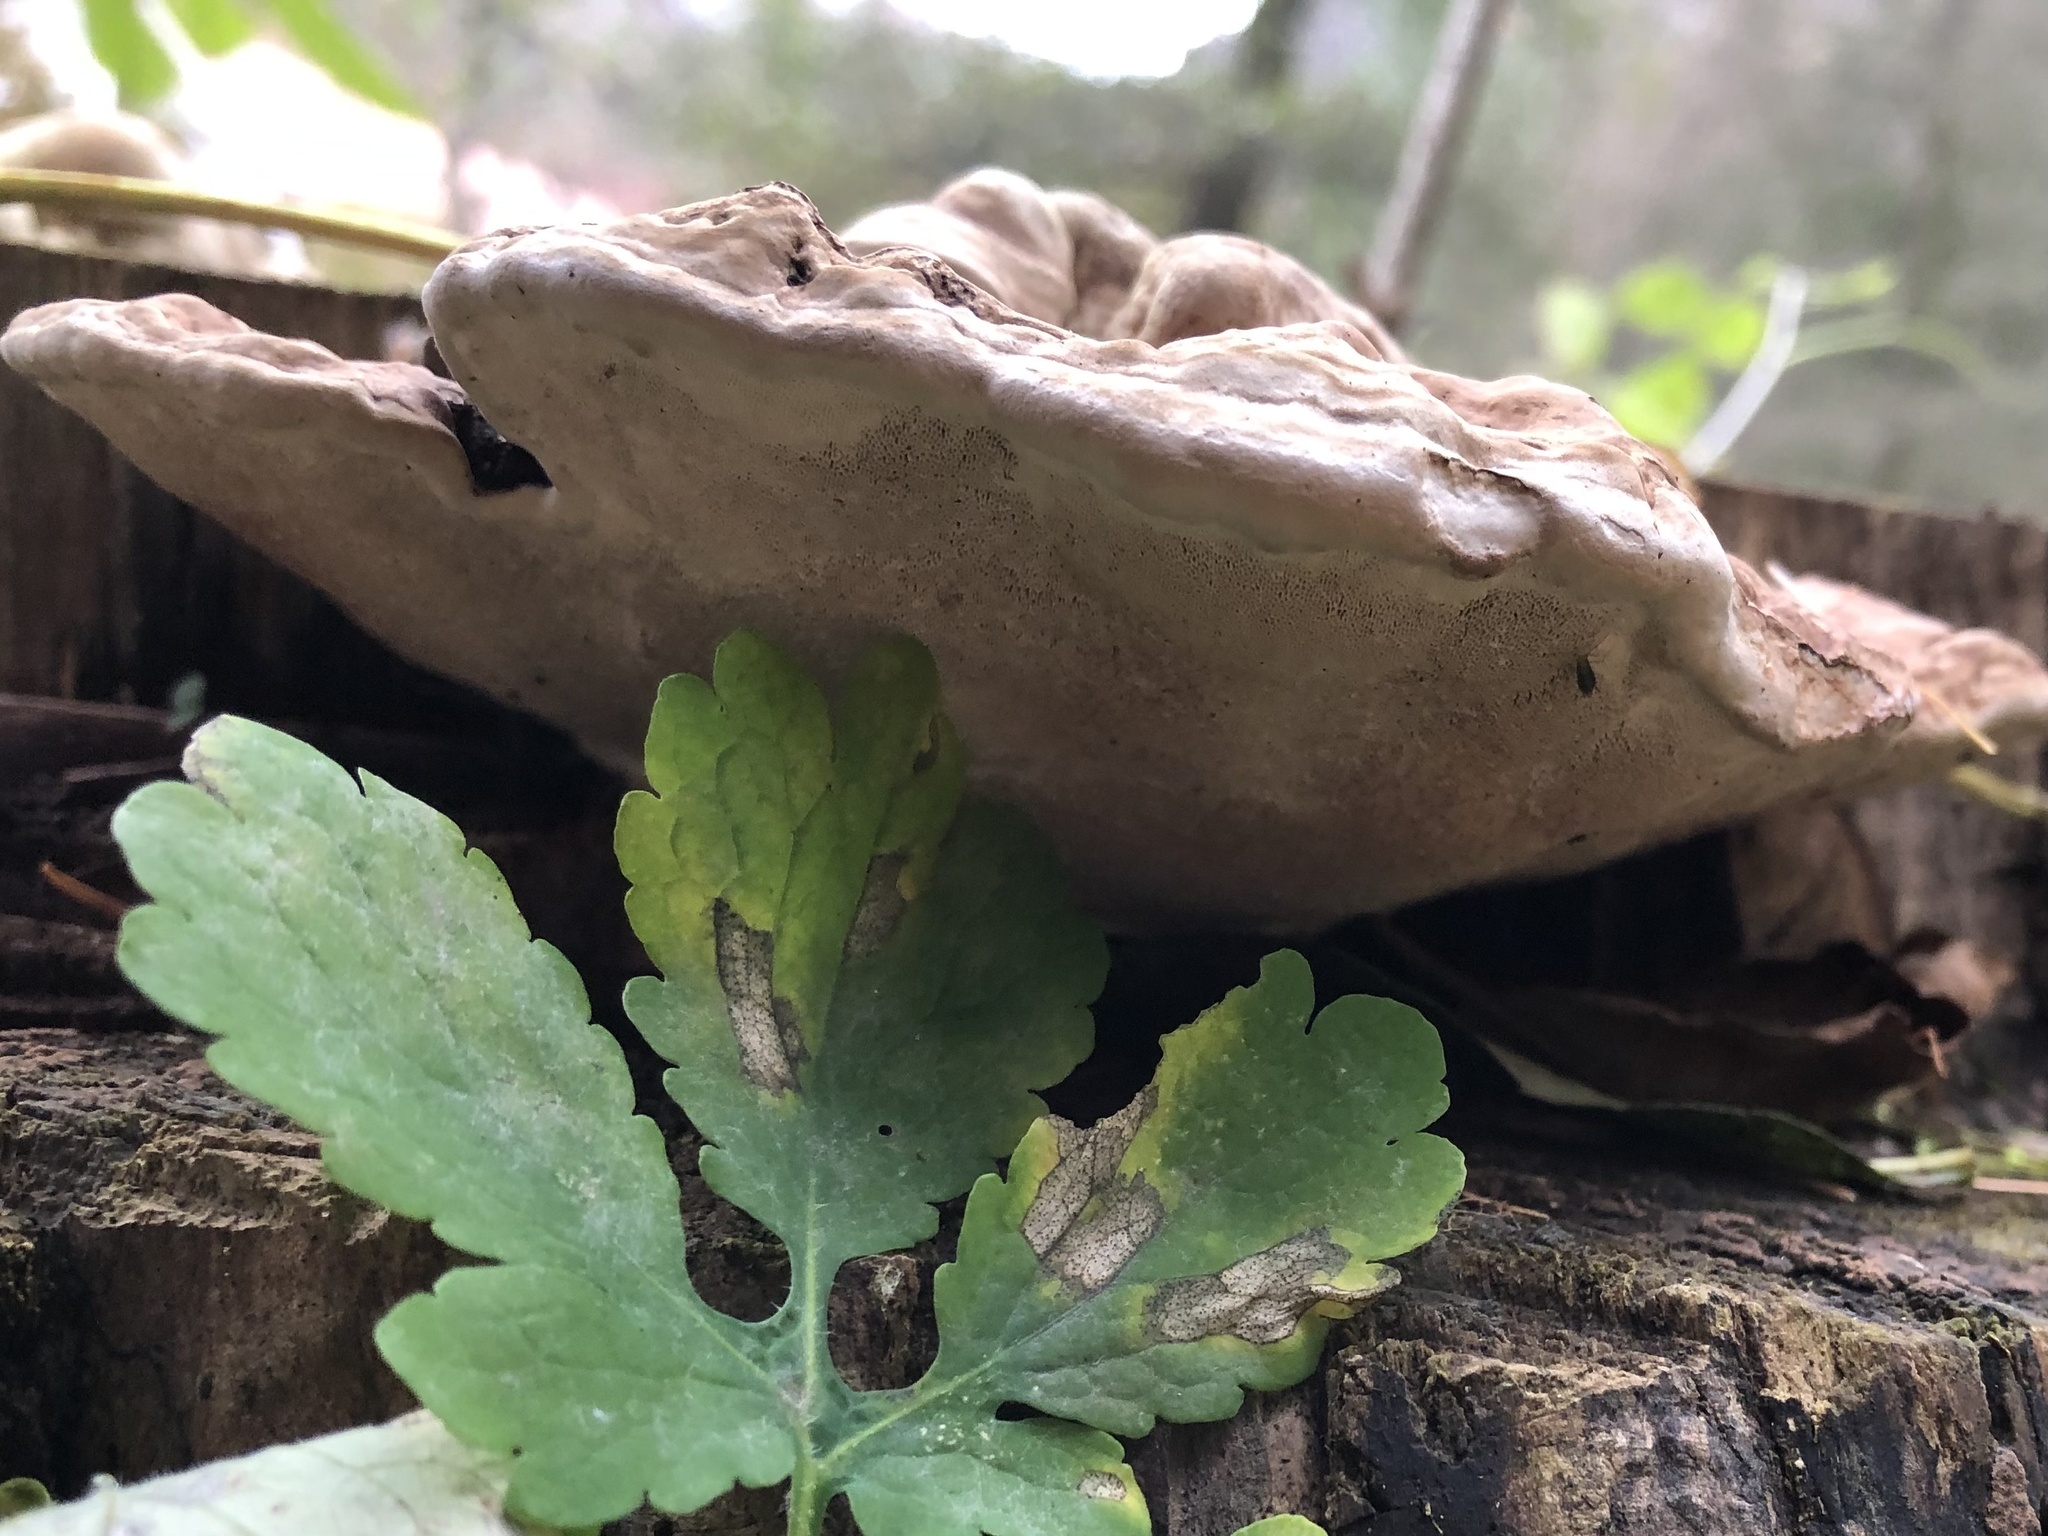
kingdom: Fungi
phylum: Basidiomycota
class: Agaricomycetes
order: Polyporales
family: Polyporaceae
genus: Ganoderma
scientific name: Ganoderma applanatum
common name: Artist's bracket
